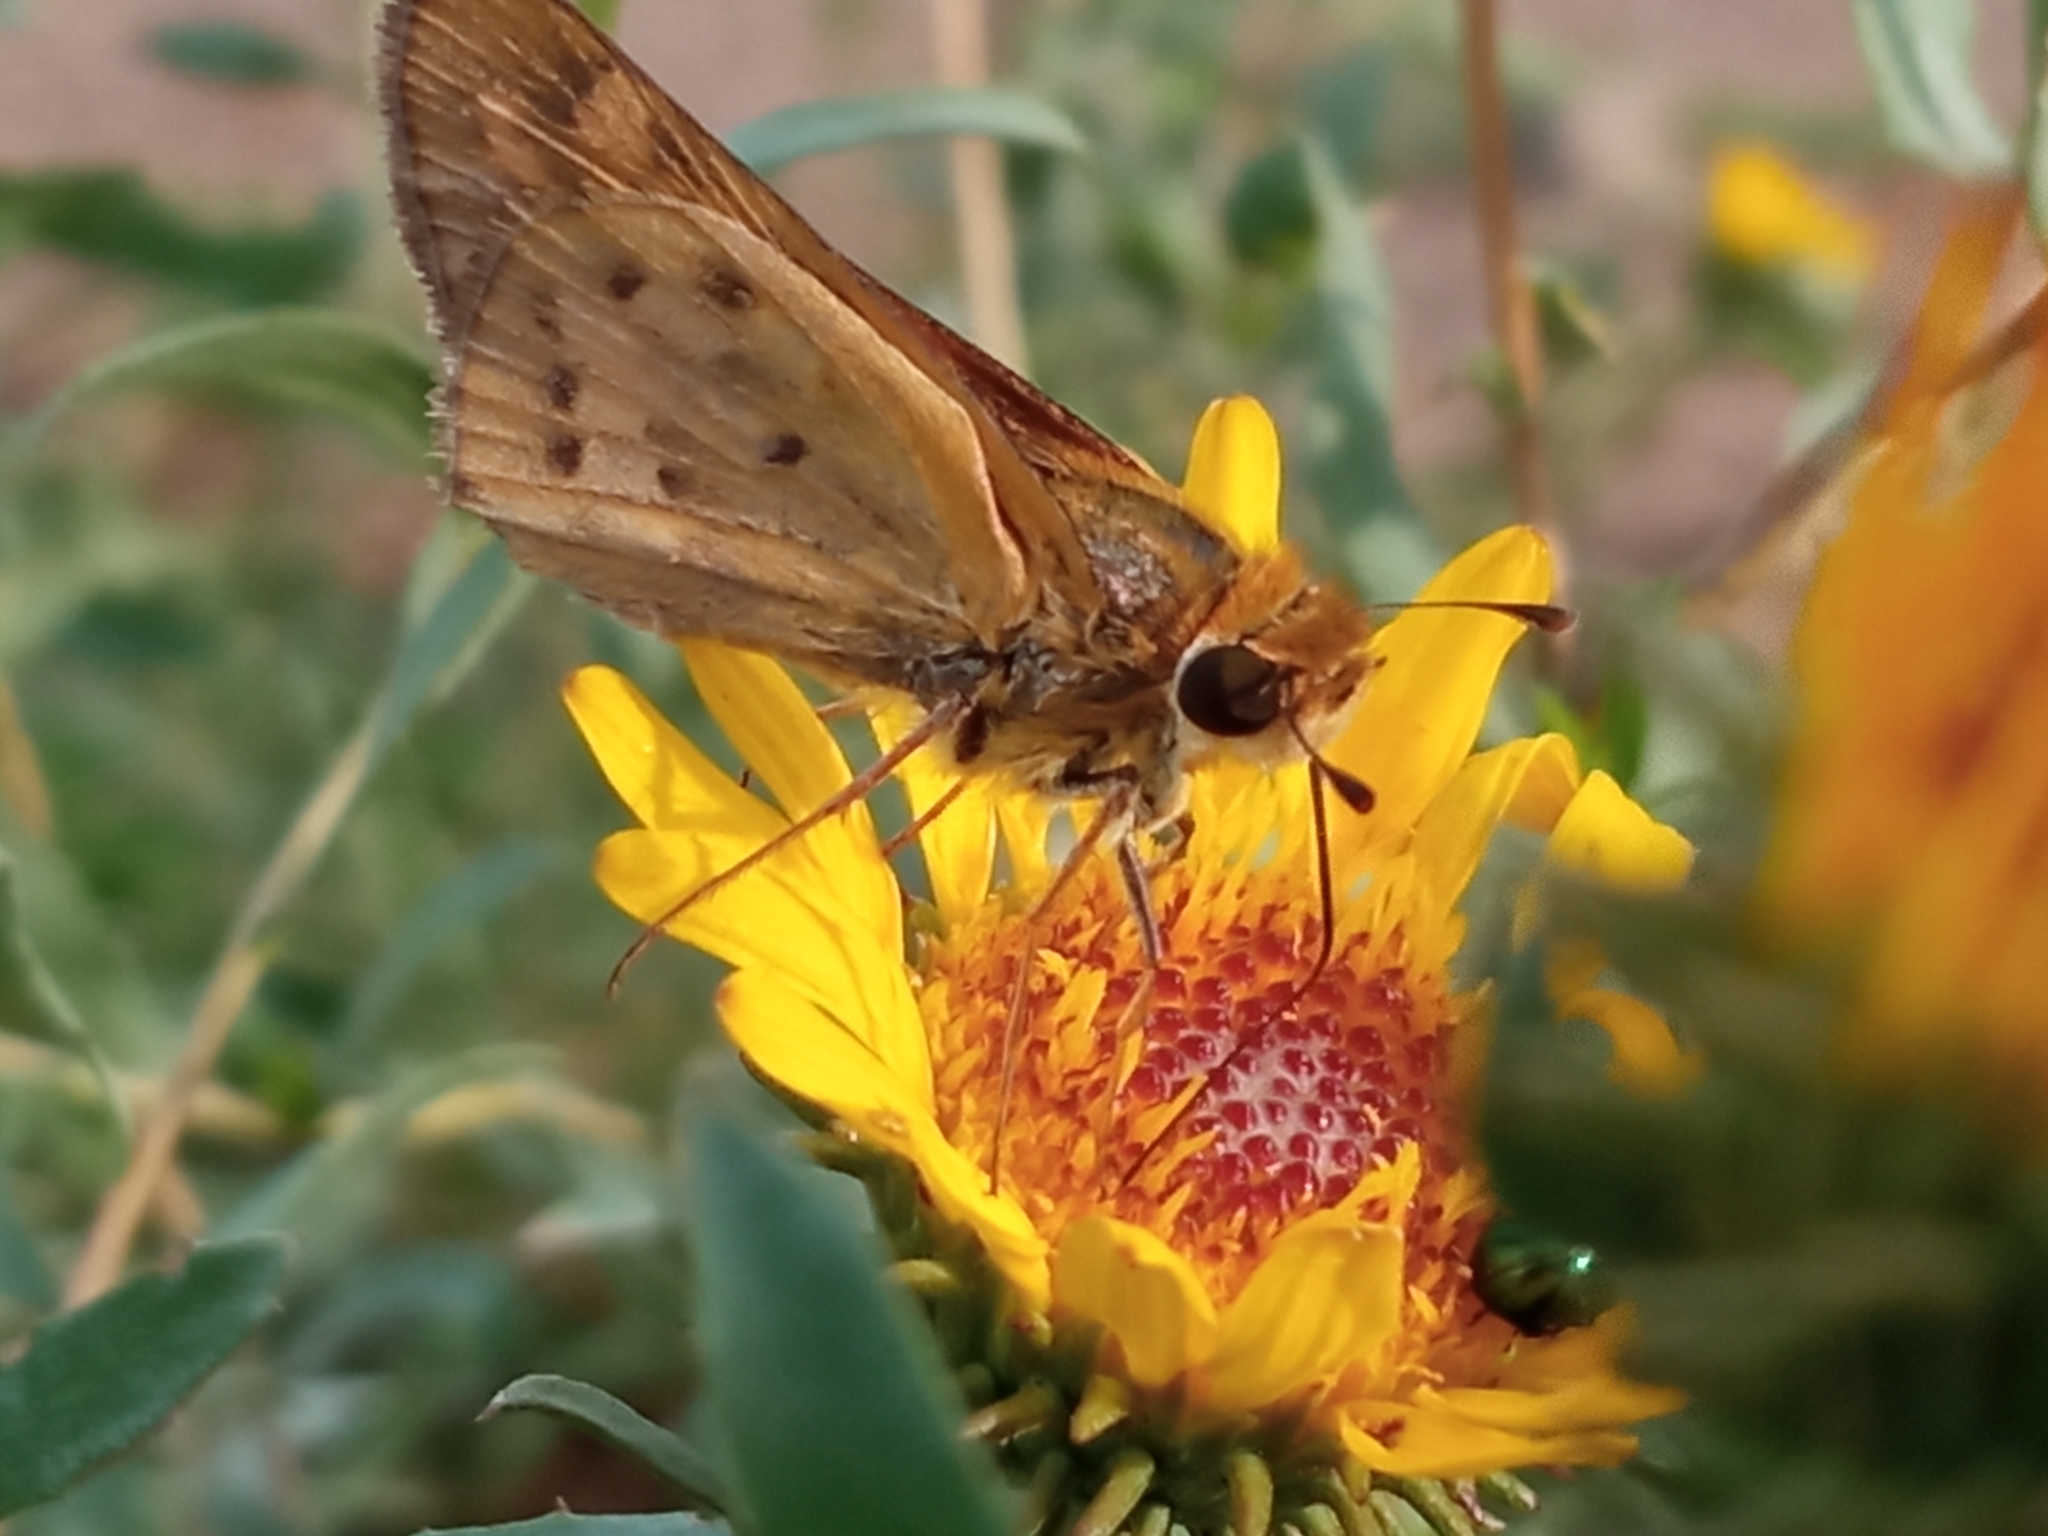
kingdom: Animalia
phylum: Arthropoda
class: Insecta
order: Lepidoptera
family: Hesperiidae
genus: Hylephila
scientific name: Hylephila phyleus
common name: Fiery skipper
